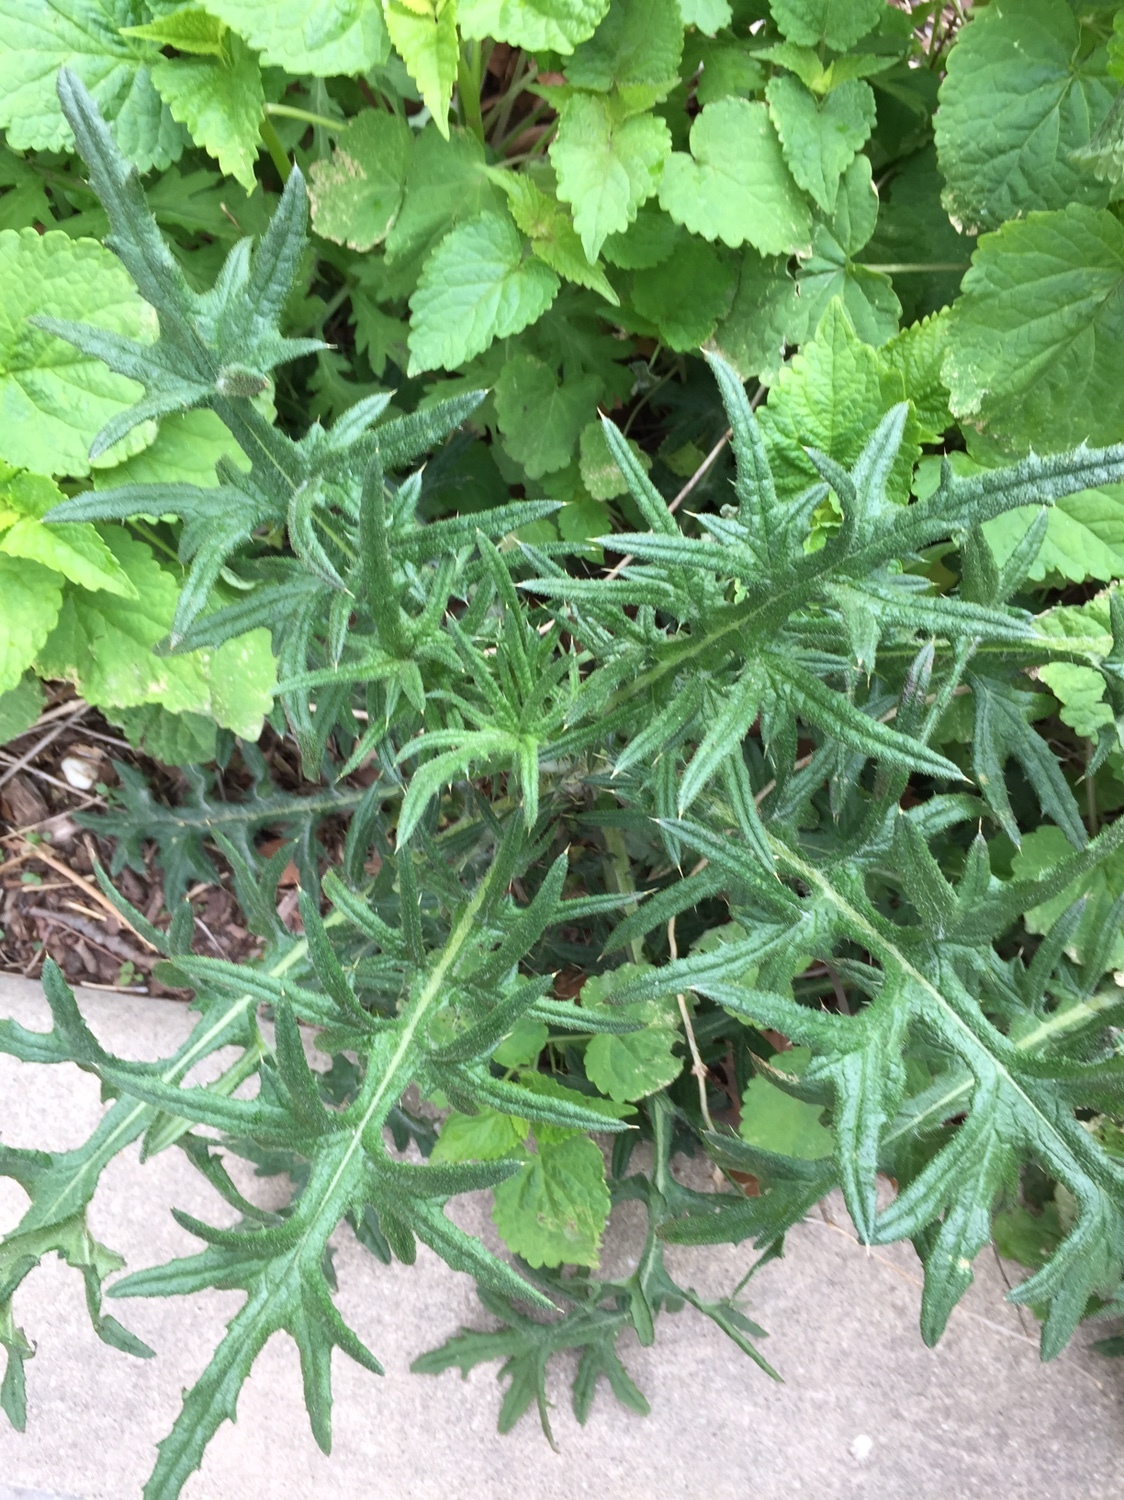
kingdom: Plantae
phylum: Tracheophyta
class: Magnoliopsida
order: Asterales
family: Asteraceae
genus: Cirsium
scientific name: Cirsium vulgare
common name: Bull thistle
